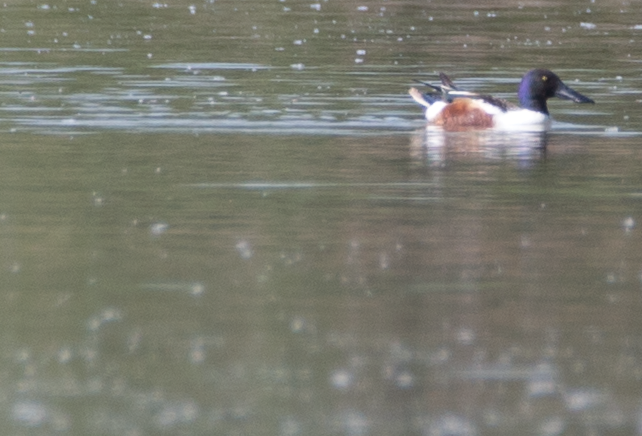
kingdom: Animalia
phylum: Chordata
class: Aves
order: Anseriformes
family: Anatidae
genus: Spatula
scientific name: Spatula clypeata
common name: Northern shoveler
